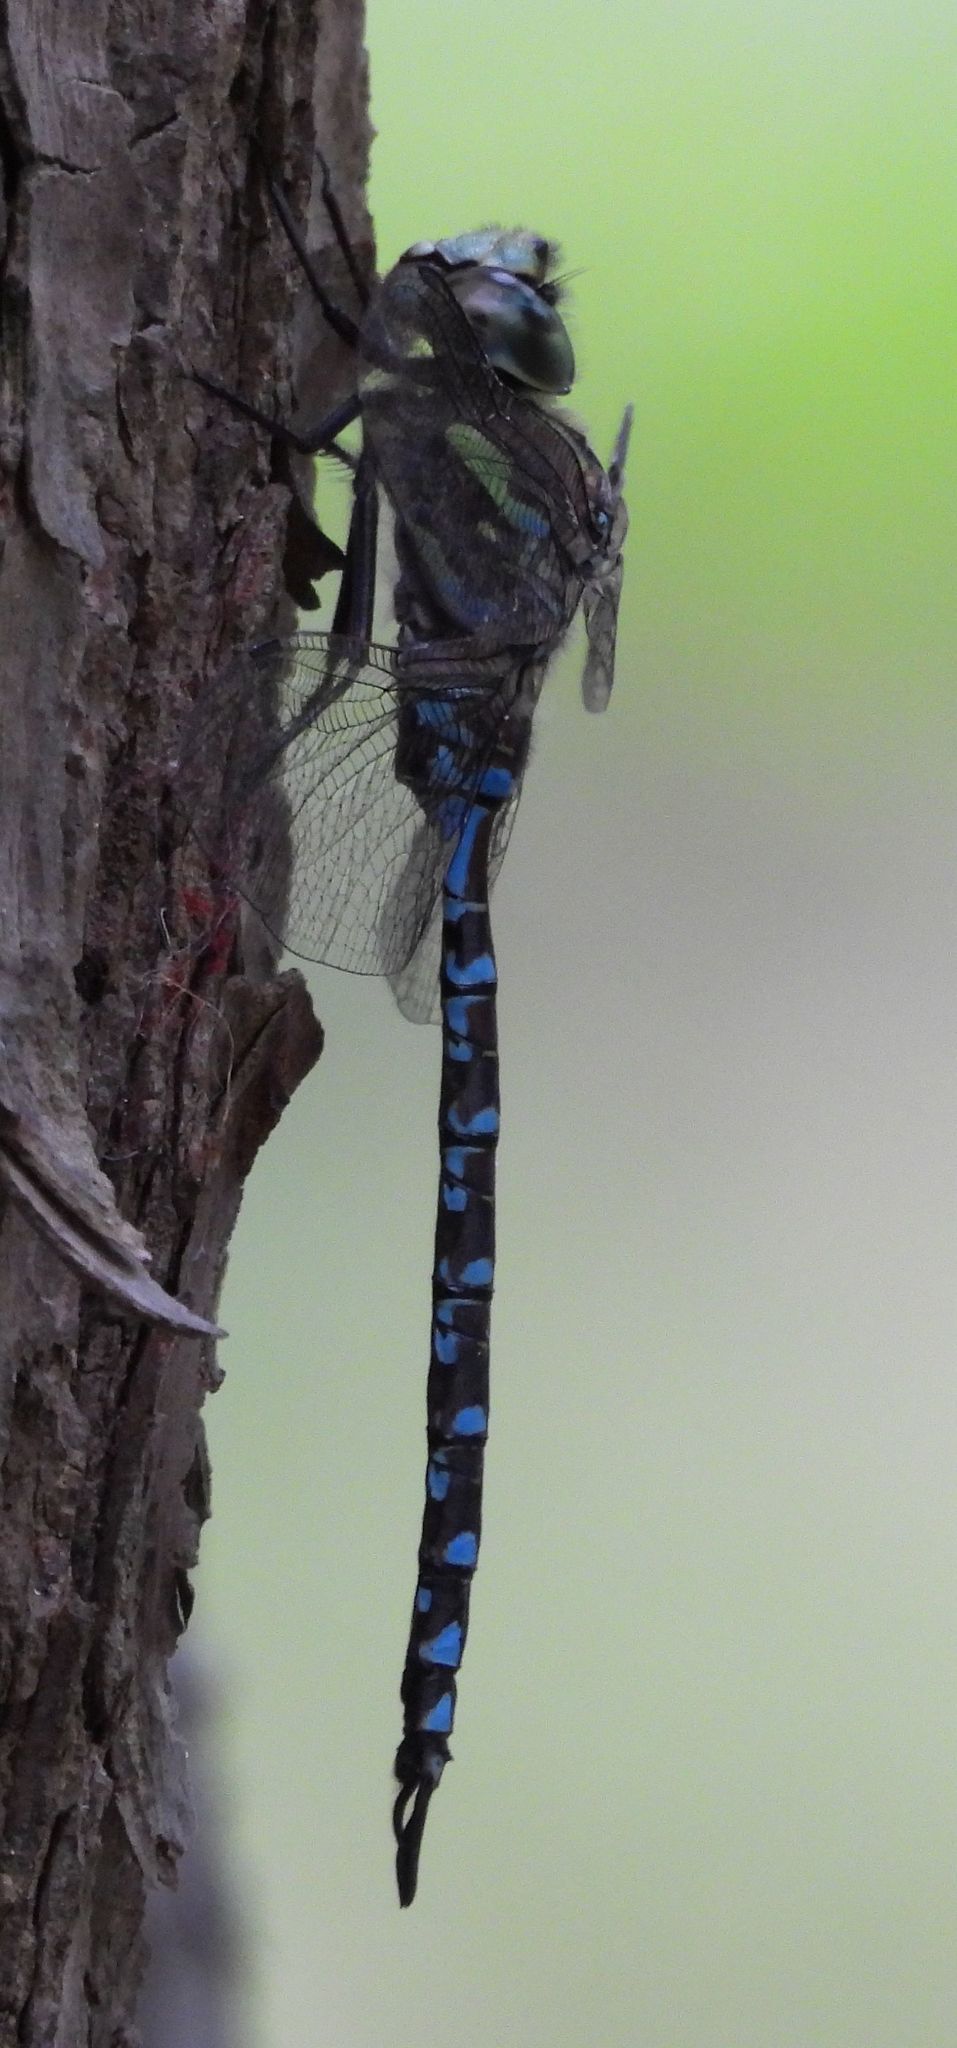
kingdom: Animalia
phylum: Arthropoda
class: Insecta
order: Odonata
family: Aeshnidae
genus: Aeshna
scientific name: Aeshna canadensis
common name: Canada darner
